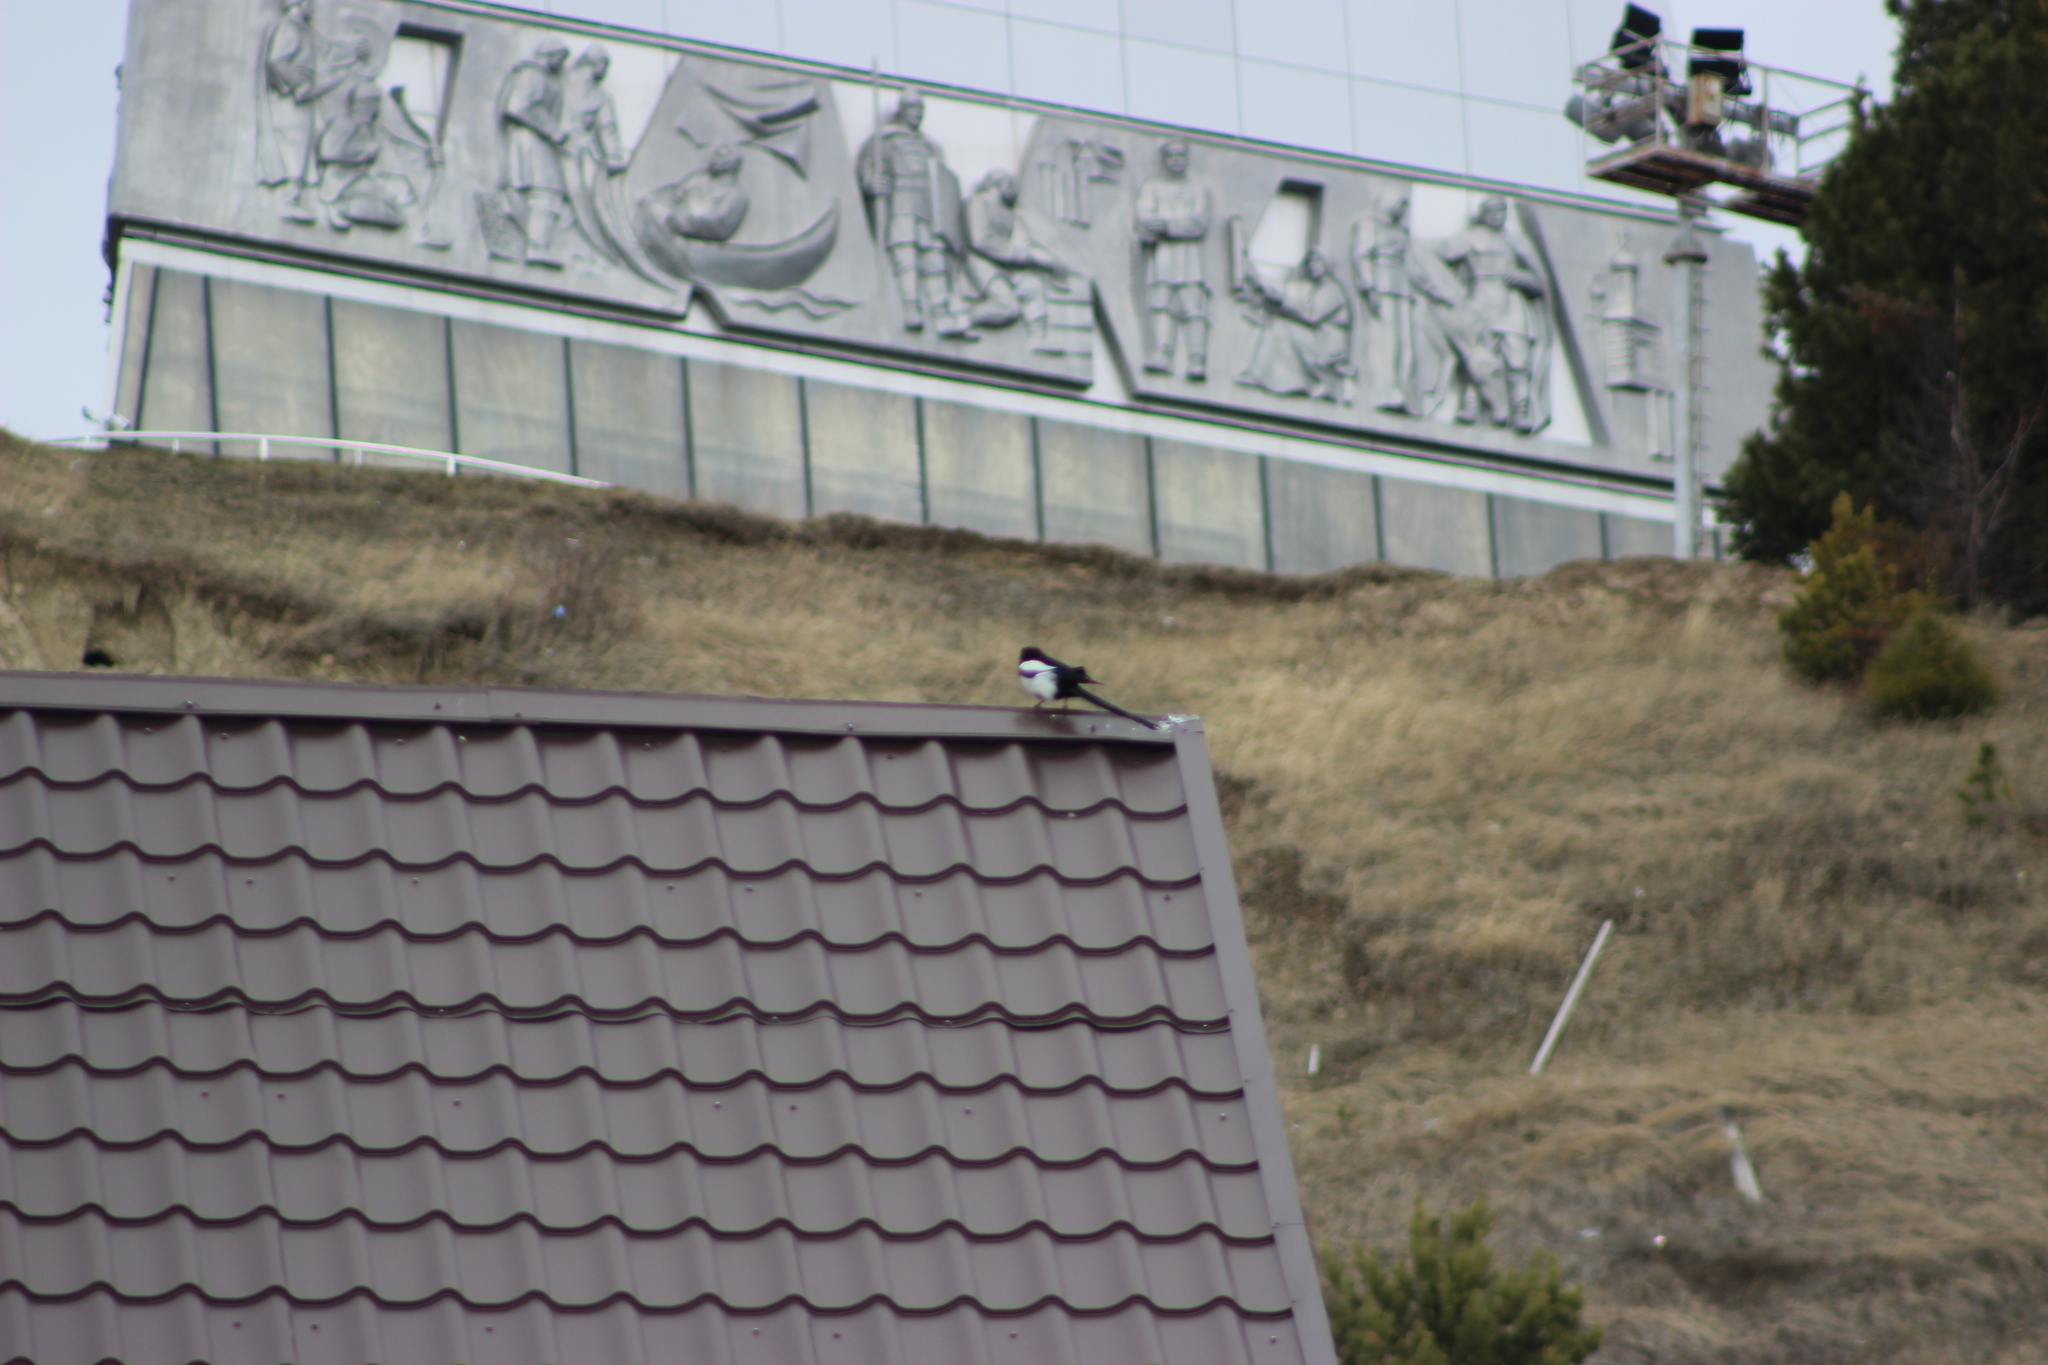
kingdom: Animalia
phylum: Chordata
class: Aves
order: Passeriformes
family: Corvidae
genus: Pica
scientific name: Pica pica
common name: Eurasian magpie
